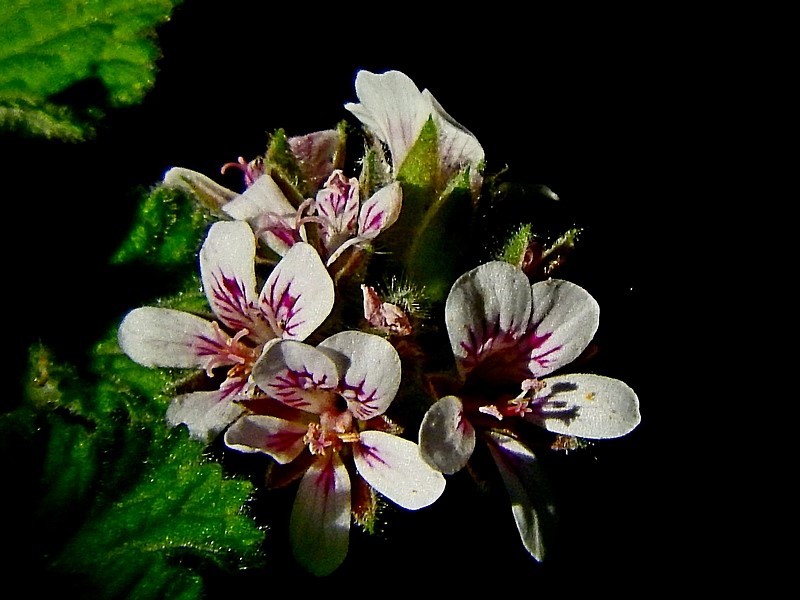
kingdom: Plantae
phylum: Tracheophyta
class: Magnoliopsida
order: Geraniales
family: Geraniaceae
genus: Pelargonium
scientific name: Pelargonium australe
